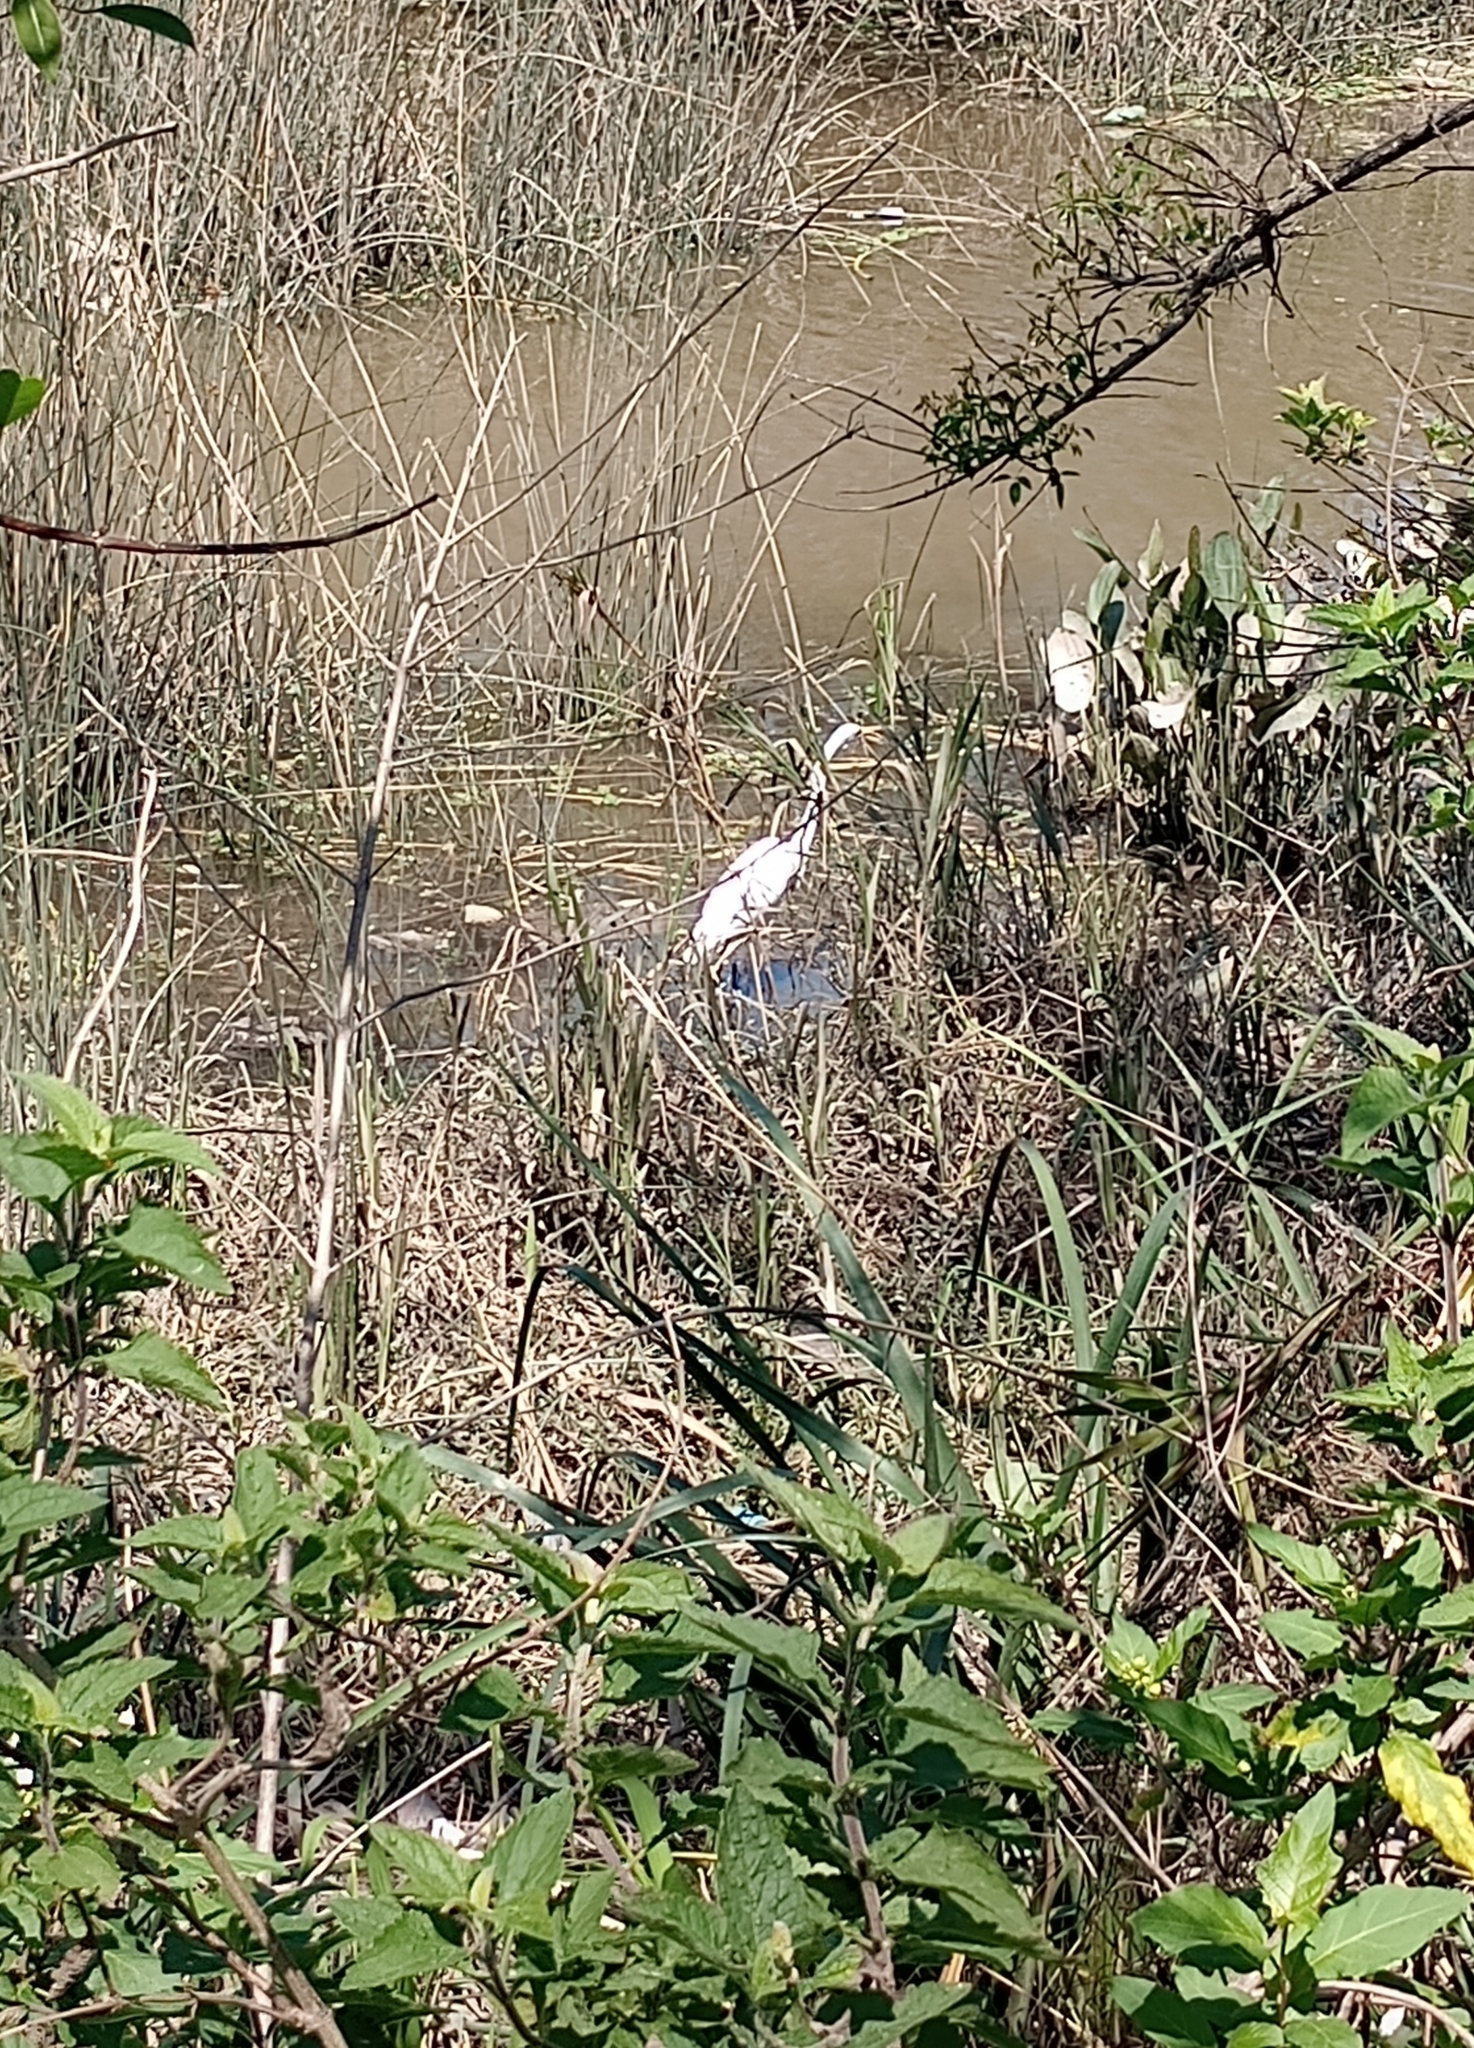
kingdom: Animalia
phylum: Chordata
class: Aves
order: Pelecaniformes
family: Ardeidae
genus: Ardea
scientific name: Ardea alba
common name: Great egret
